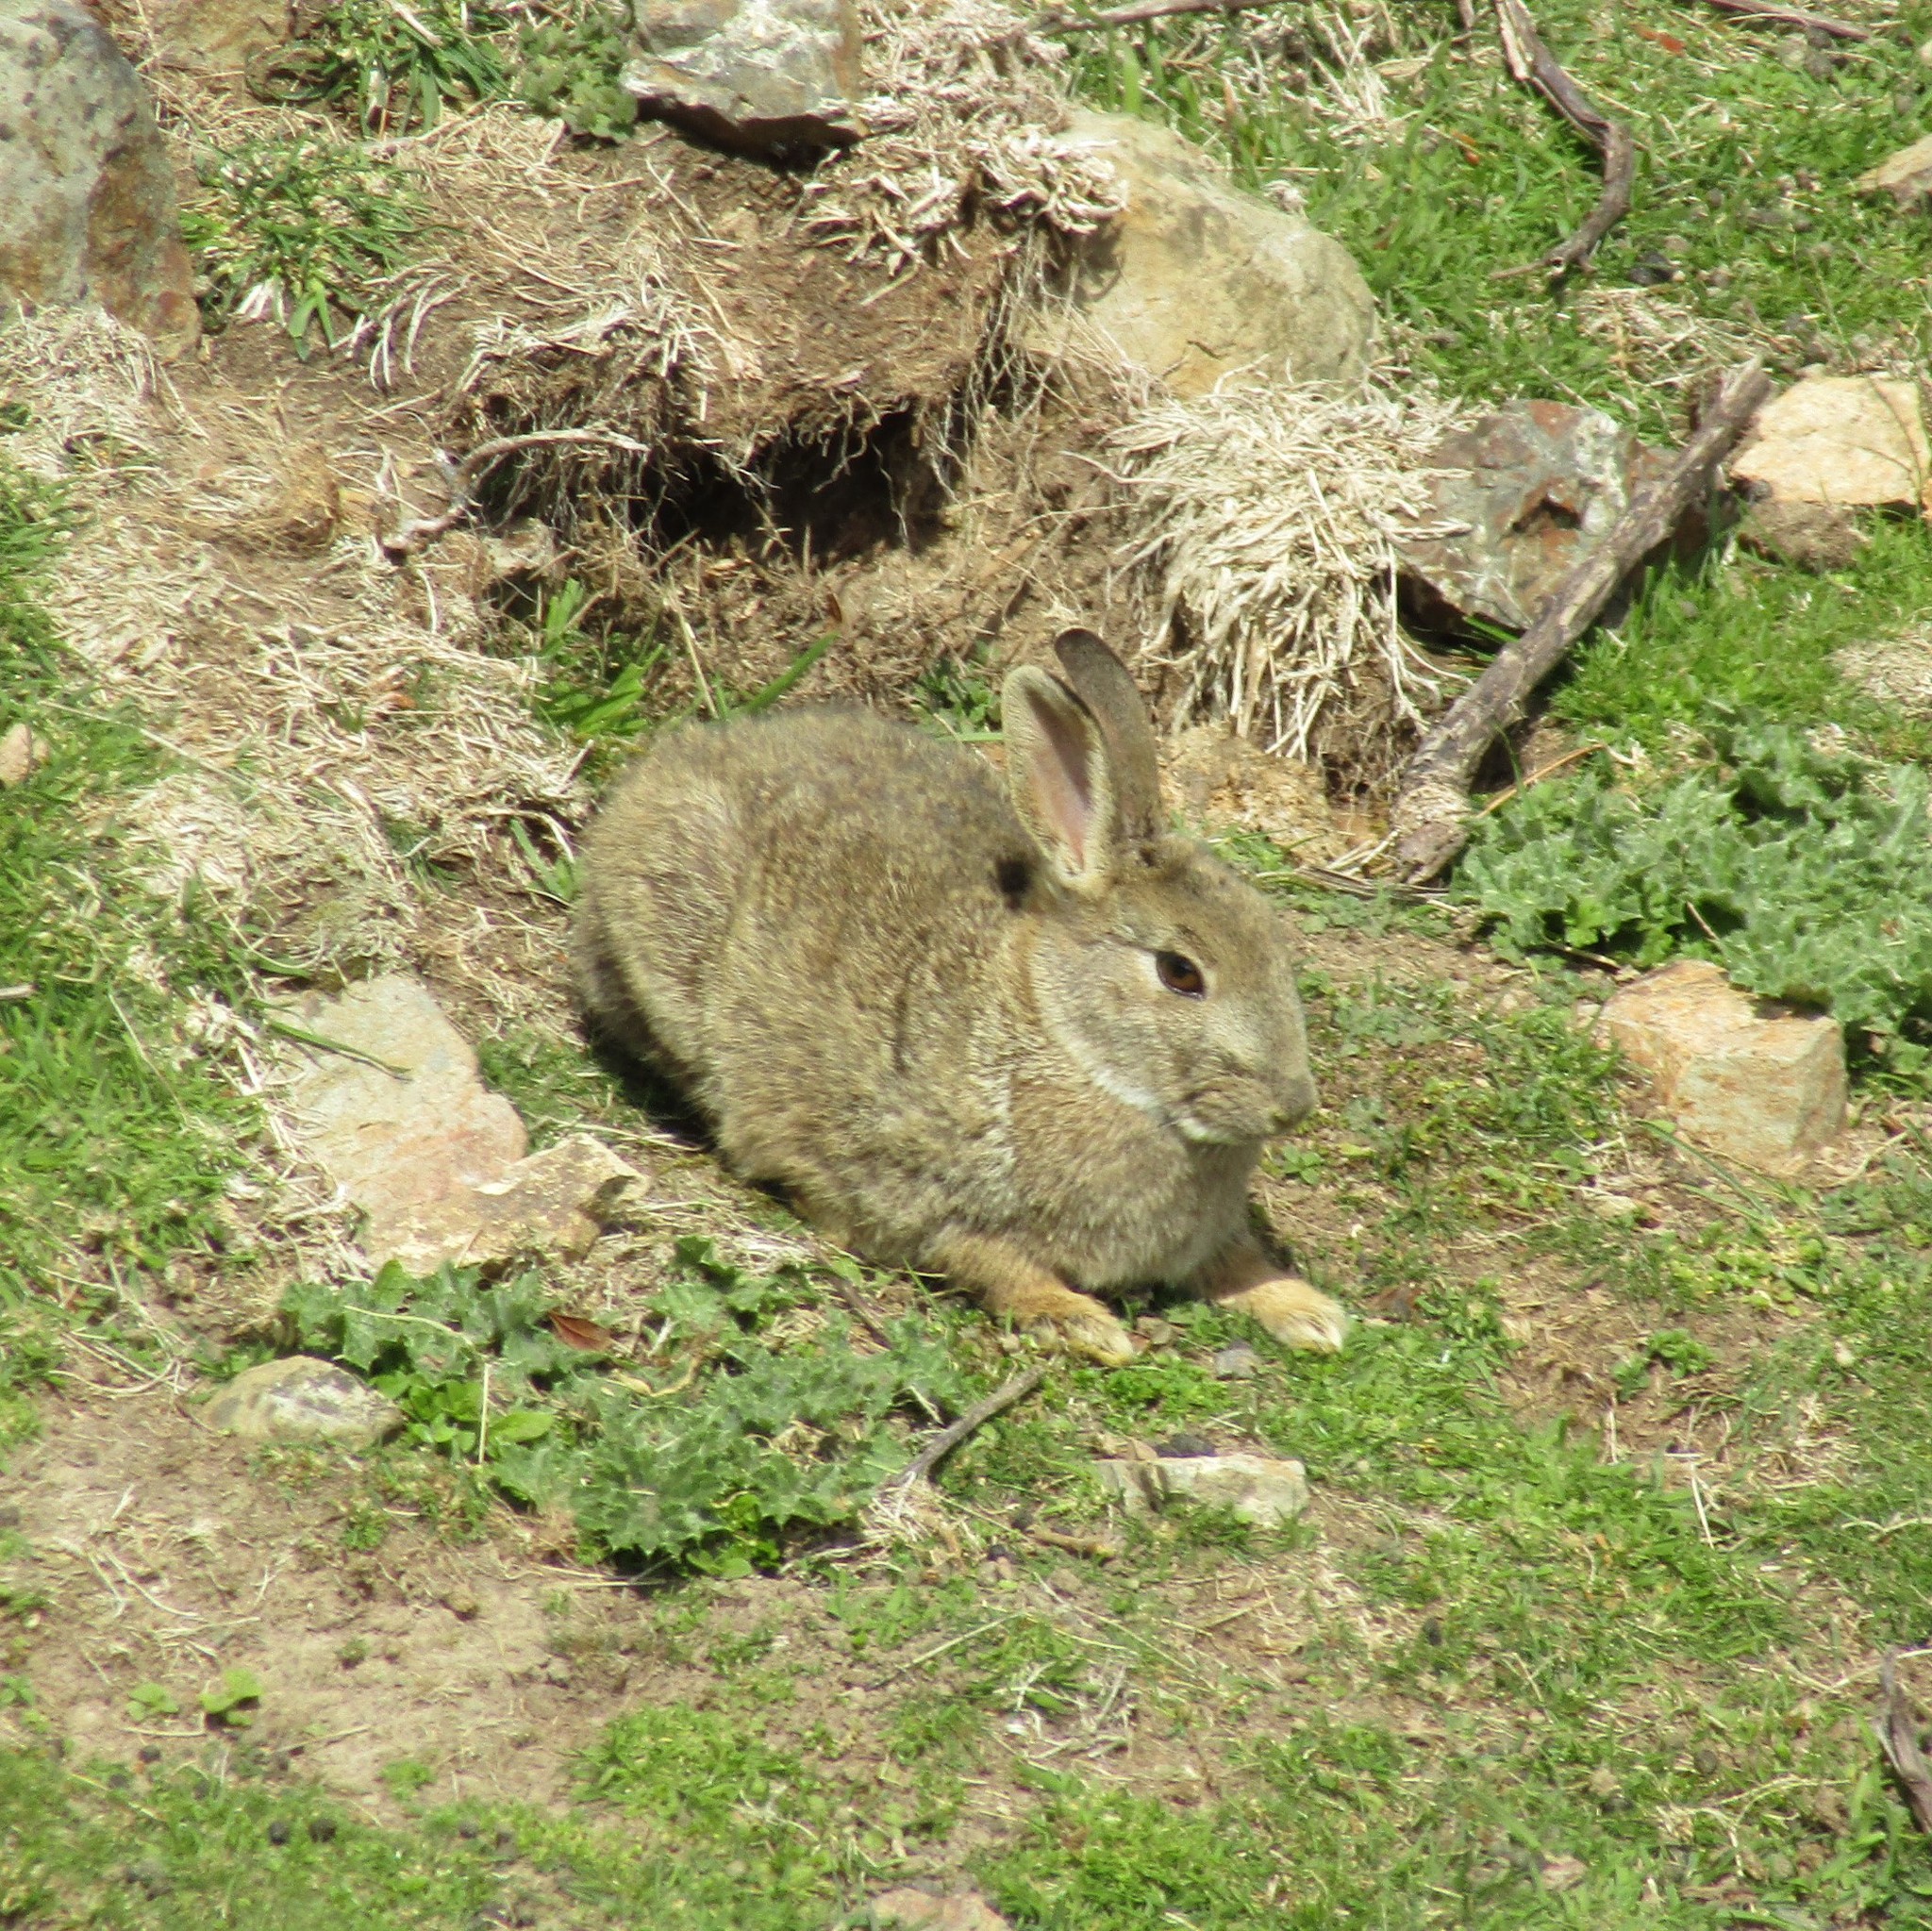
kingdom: Animalia
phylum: Chordata
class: Mammalia
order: Lagomorpha
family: Leporidae
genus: Oryctolagus
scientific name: Oryctolagus cuniculus
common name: European rabbit
